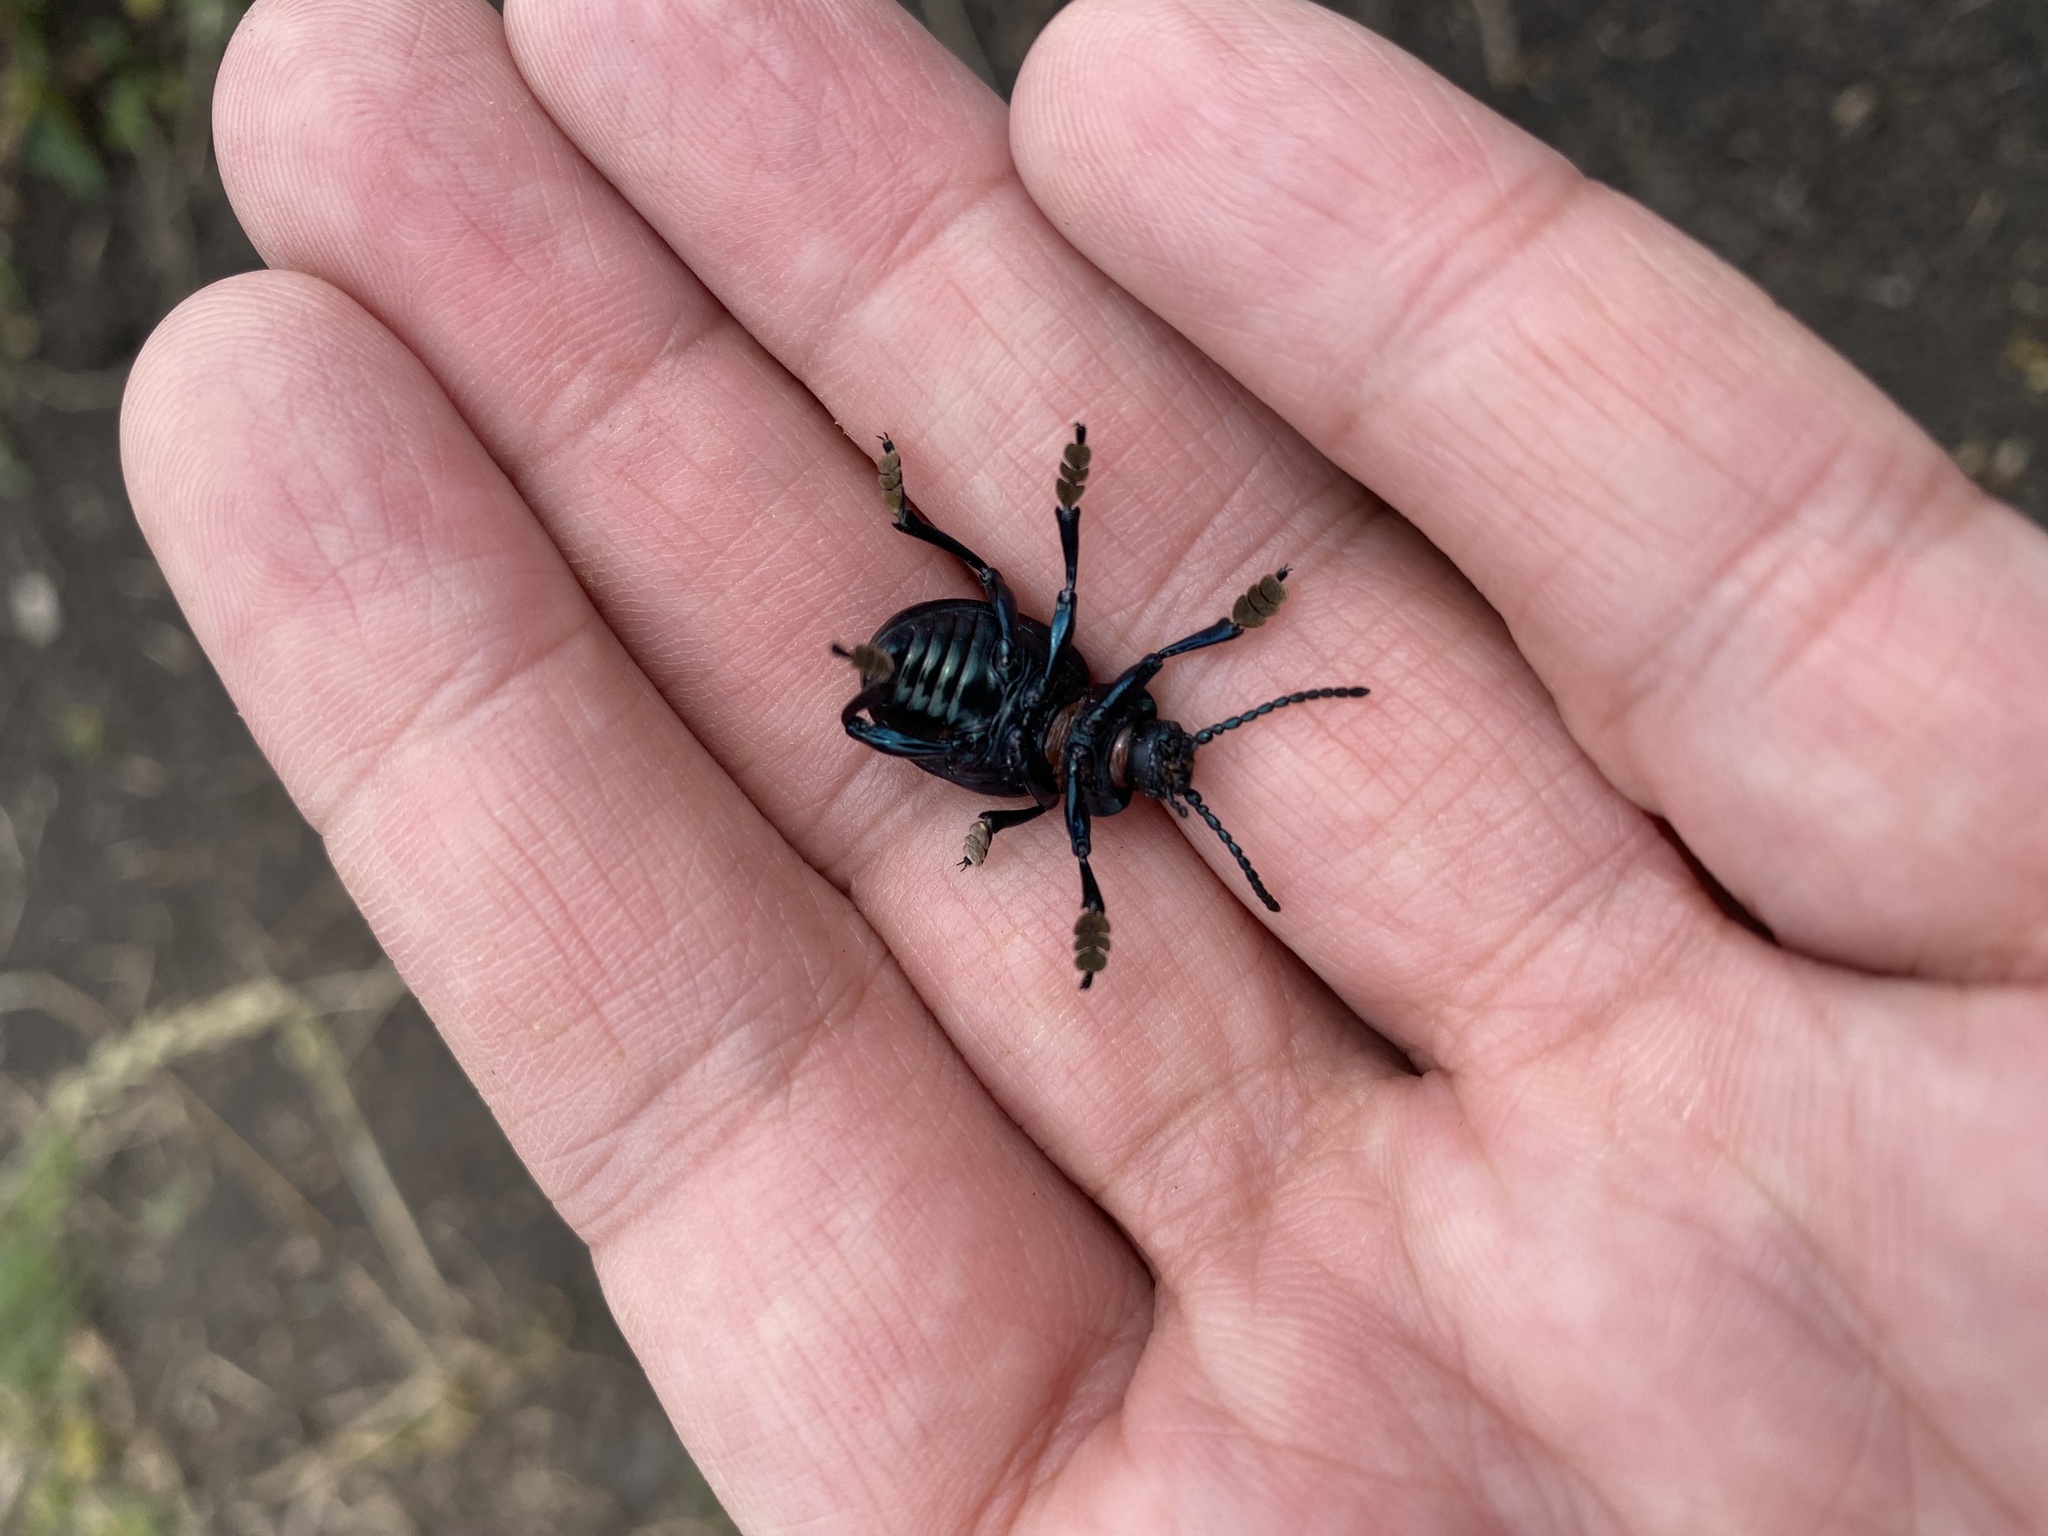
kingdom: Animalia
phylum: Arthropoda
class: Insecta
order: Coleoptera
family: Chrysomelidae
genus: Timarcha
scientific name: Timarcha tenebricosa
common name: Bloody-nosed beetle
